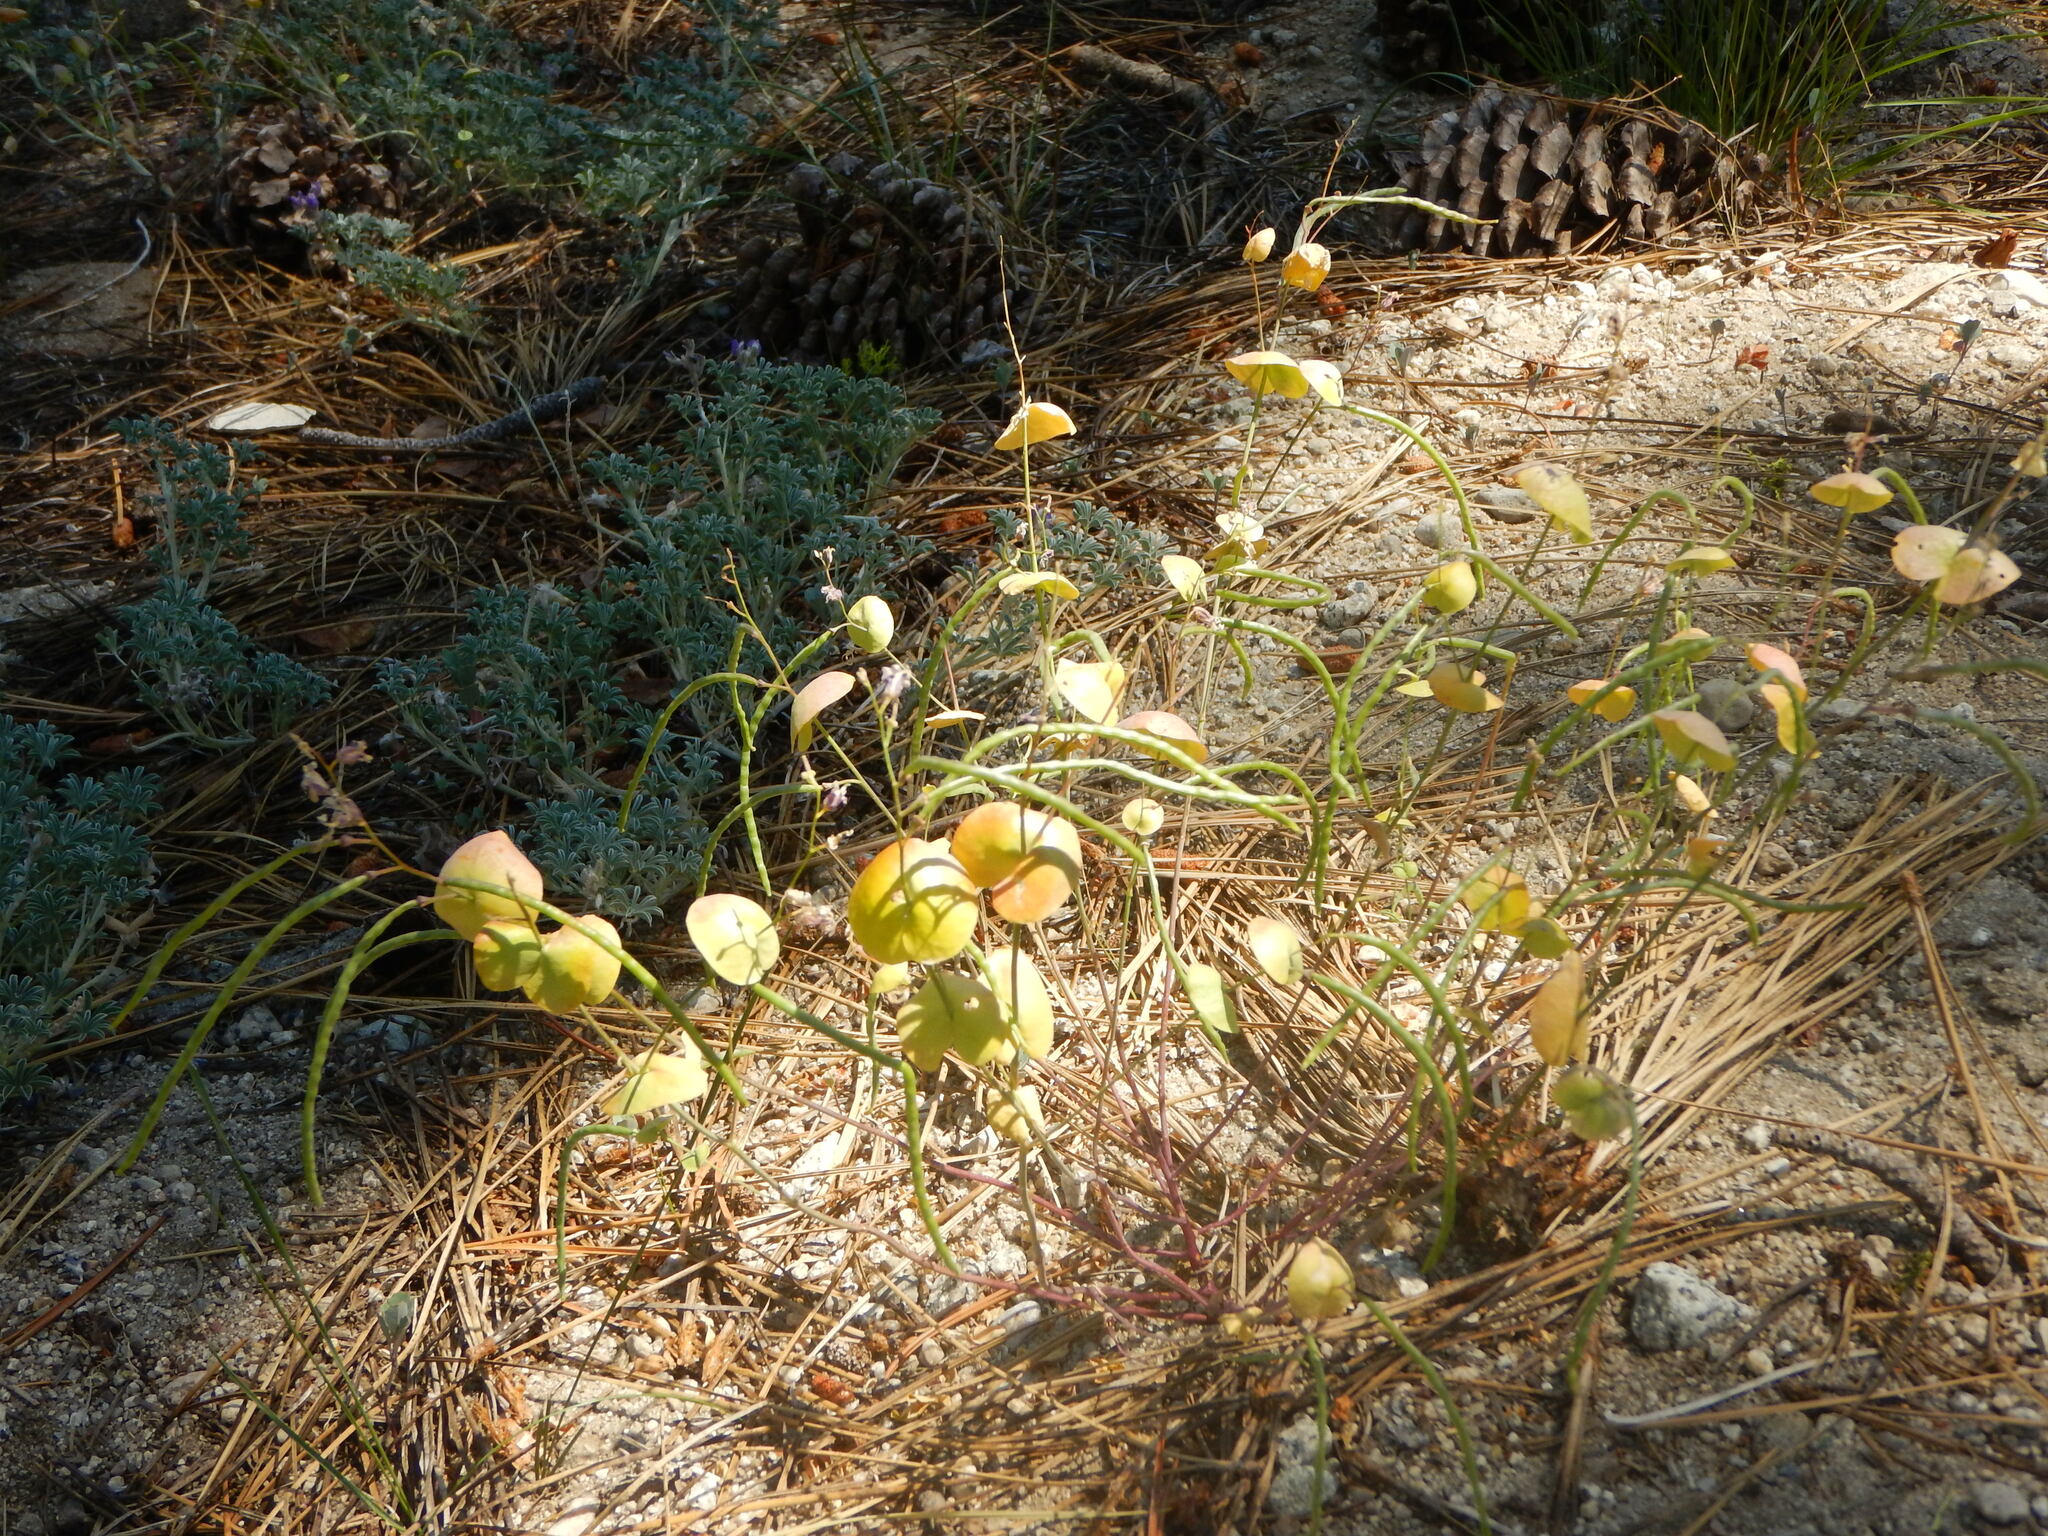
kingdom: Plantae
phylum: Tracheophyta
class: Magnoliopsida
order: Brassicales
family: Brassicaceae
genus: Streptanthus
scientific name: Streptanthus tortuosus
